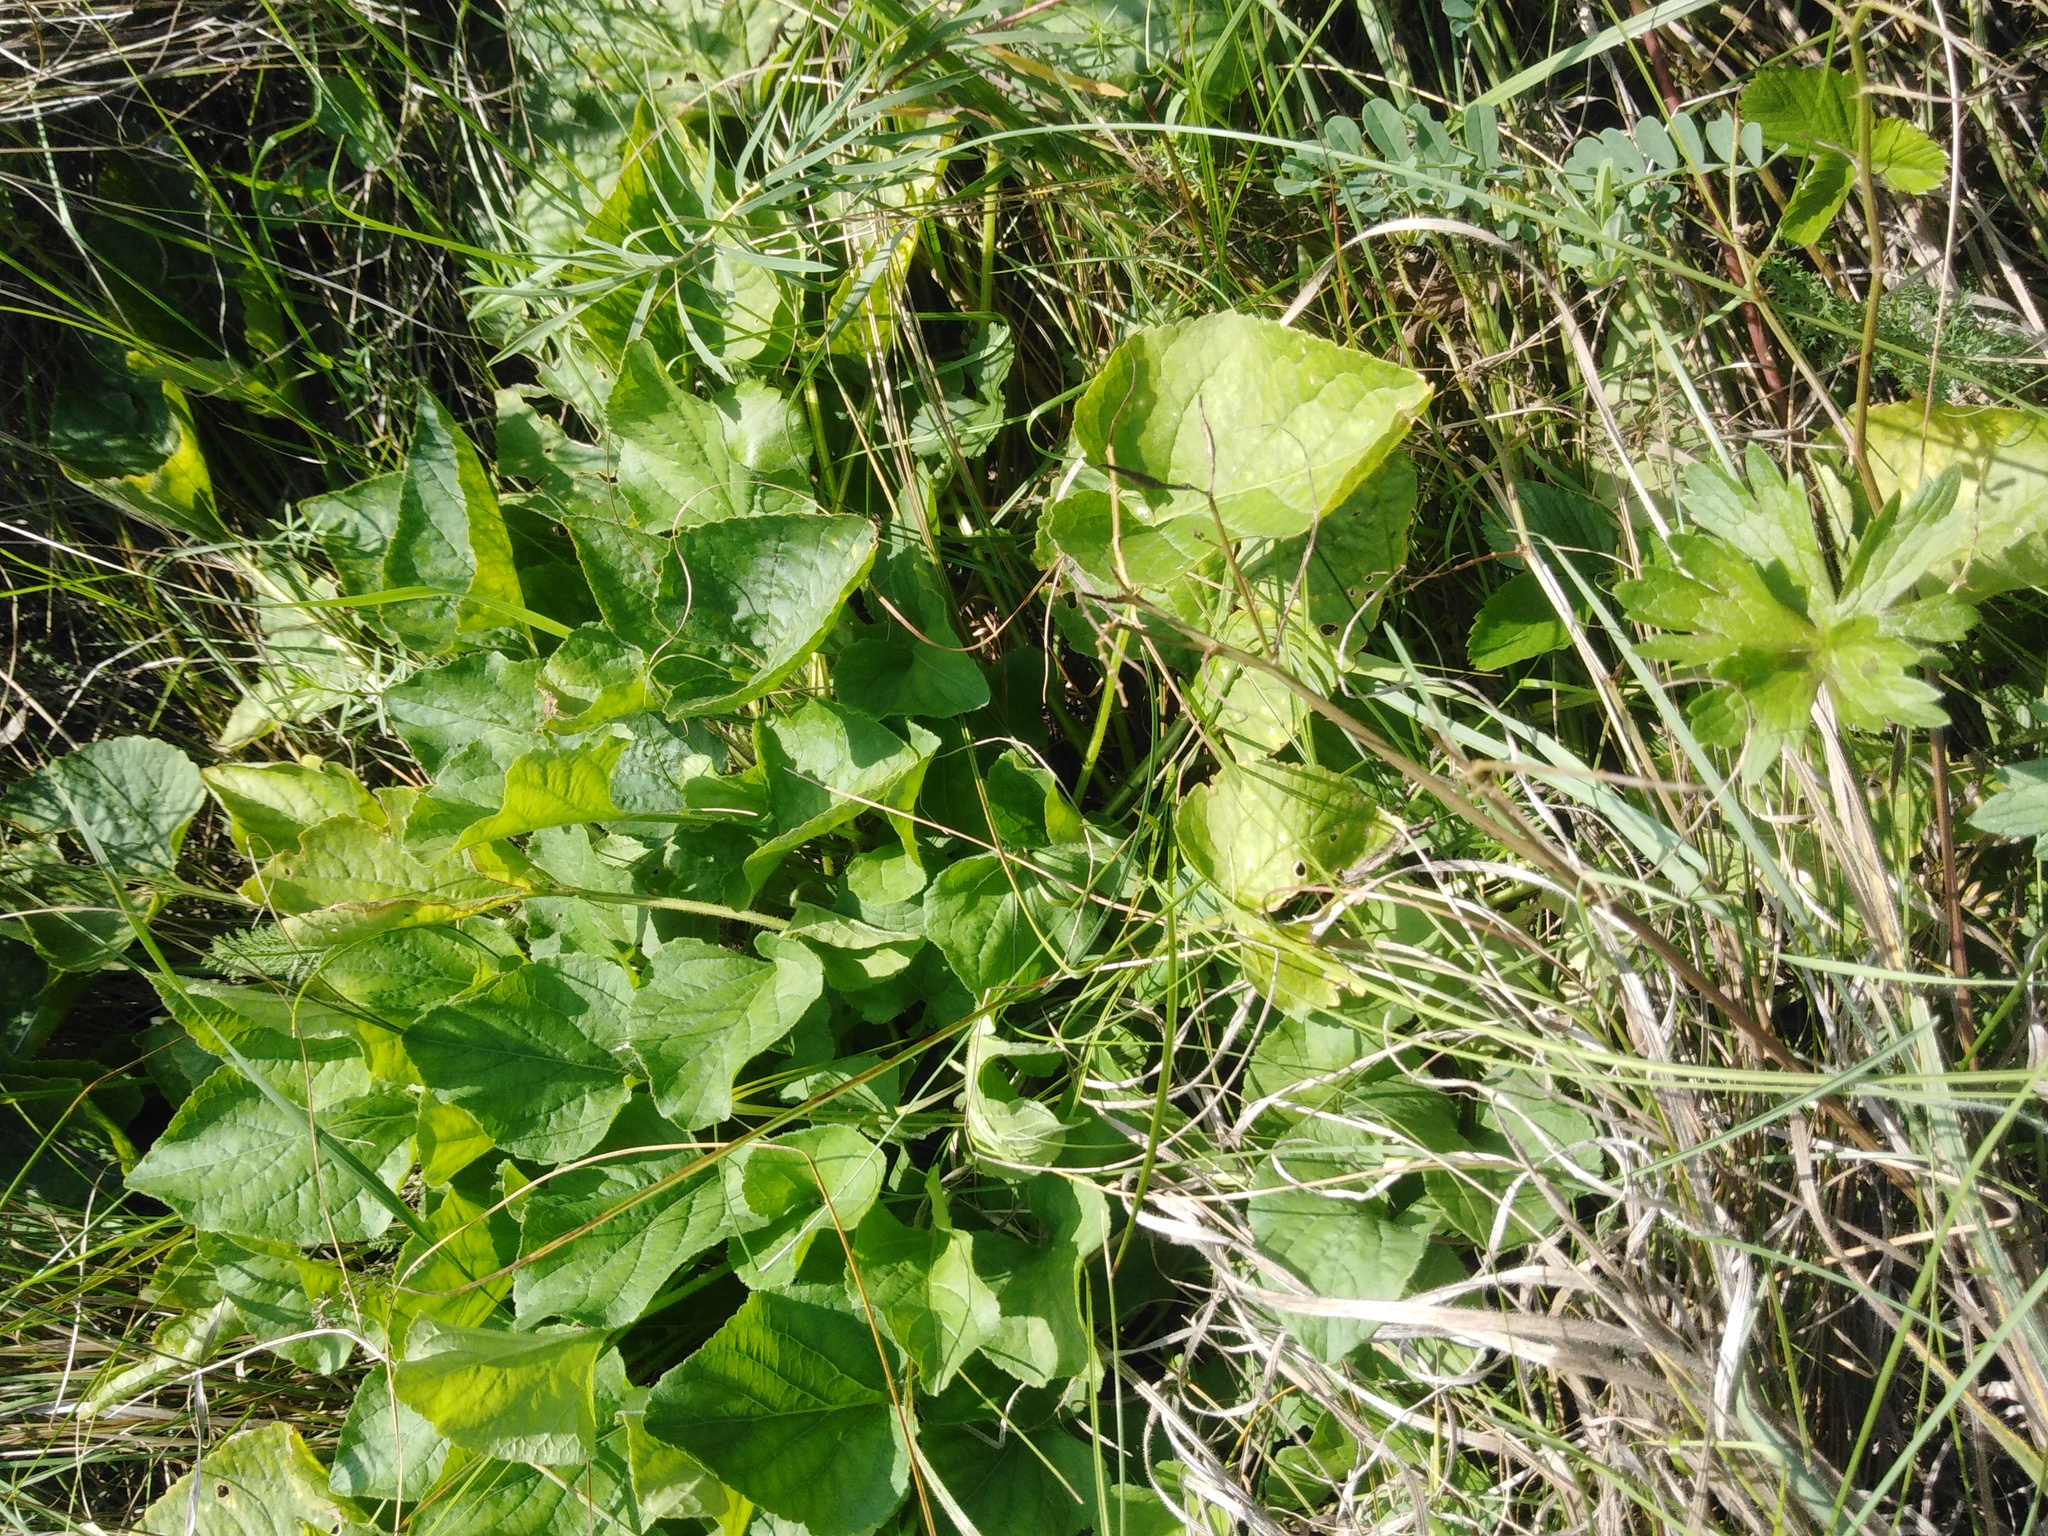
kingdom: Plantae
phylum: Tracheophyta
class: Magnoliopsida
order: Malpighiales
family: Violaceae
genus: Viola
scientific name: Viola hirta
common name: Hairy violet
